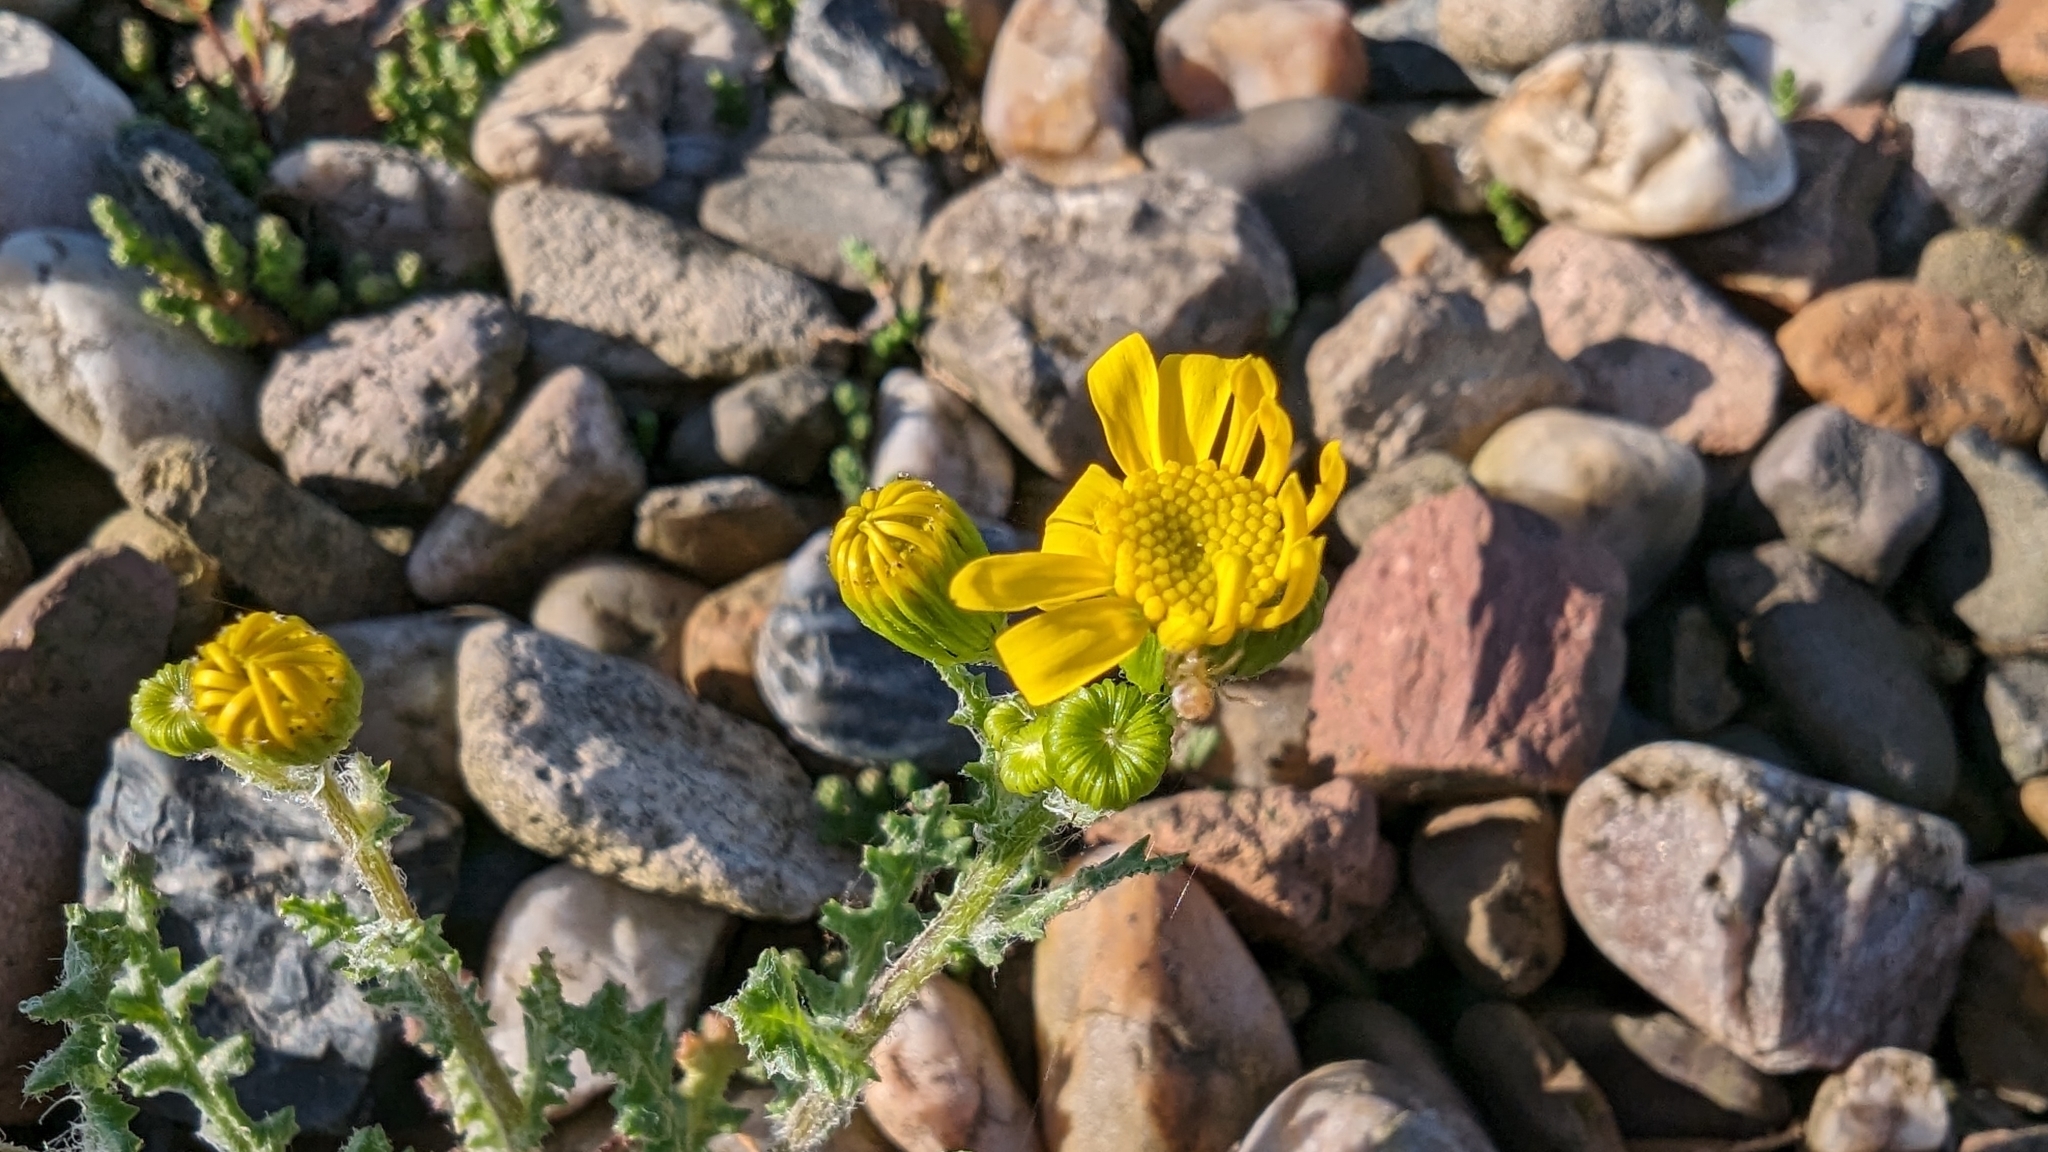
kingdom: Plantae
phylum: Tracheophyta
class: Magnoliopsida
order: Asterales
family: Asteraceae
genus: Senecio
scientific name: Senecio vernalis
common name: Eastern groundsel
